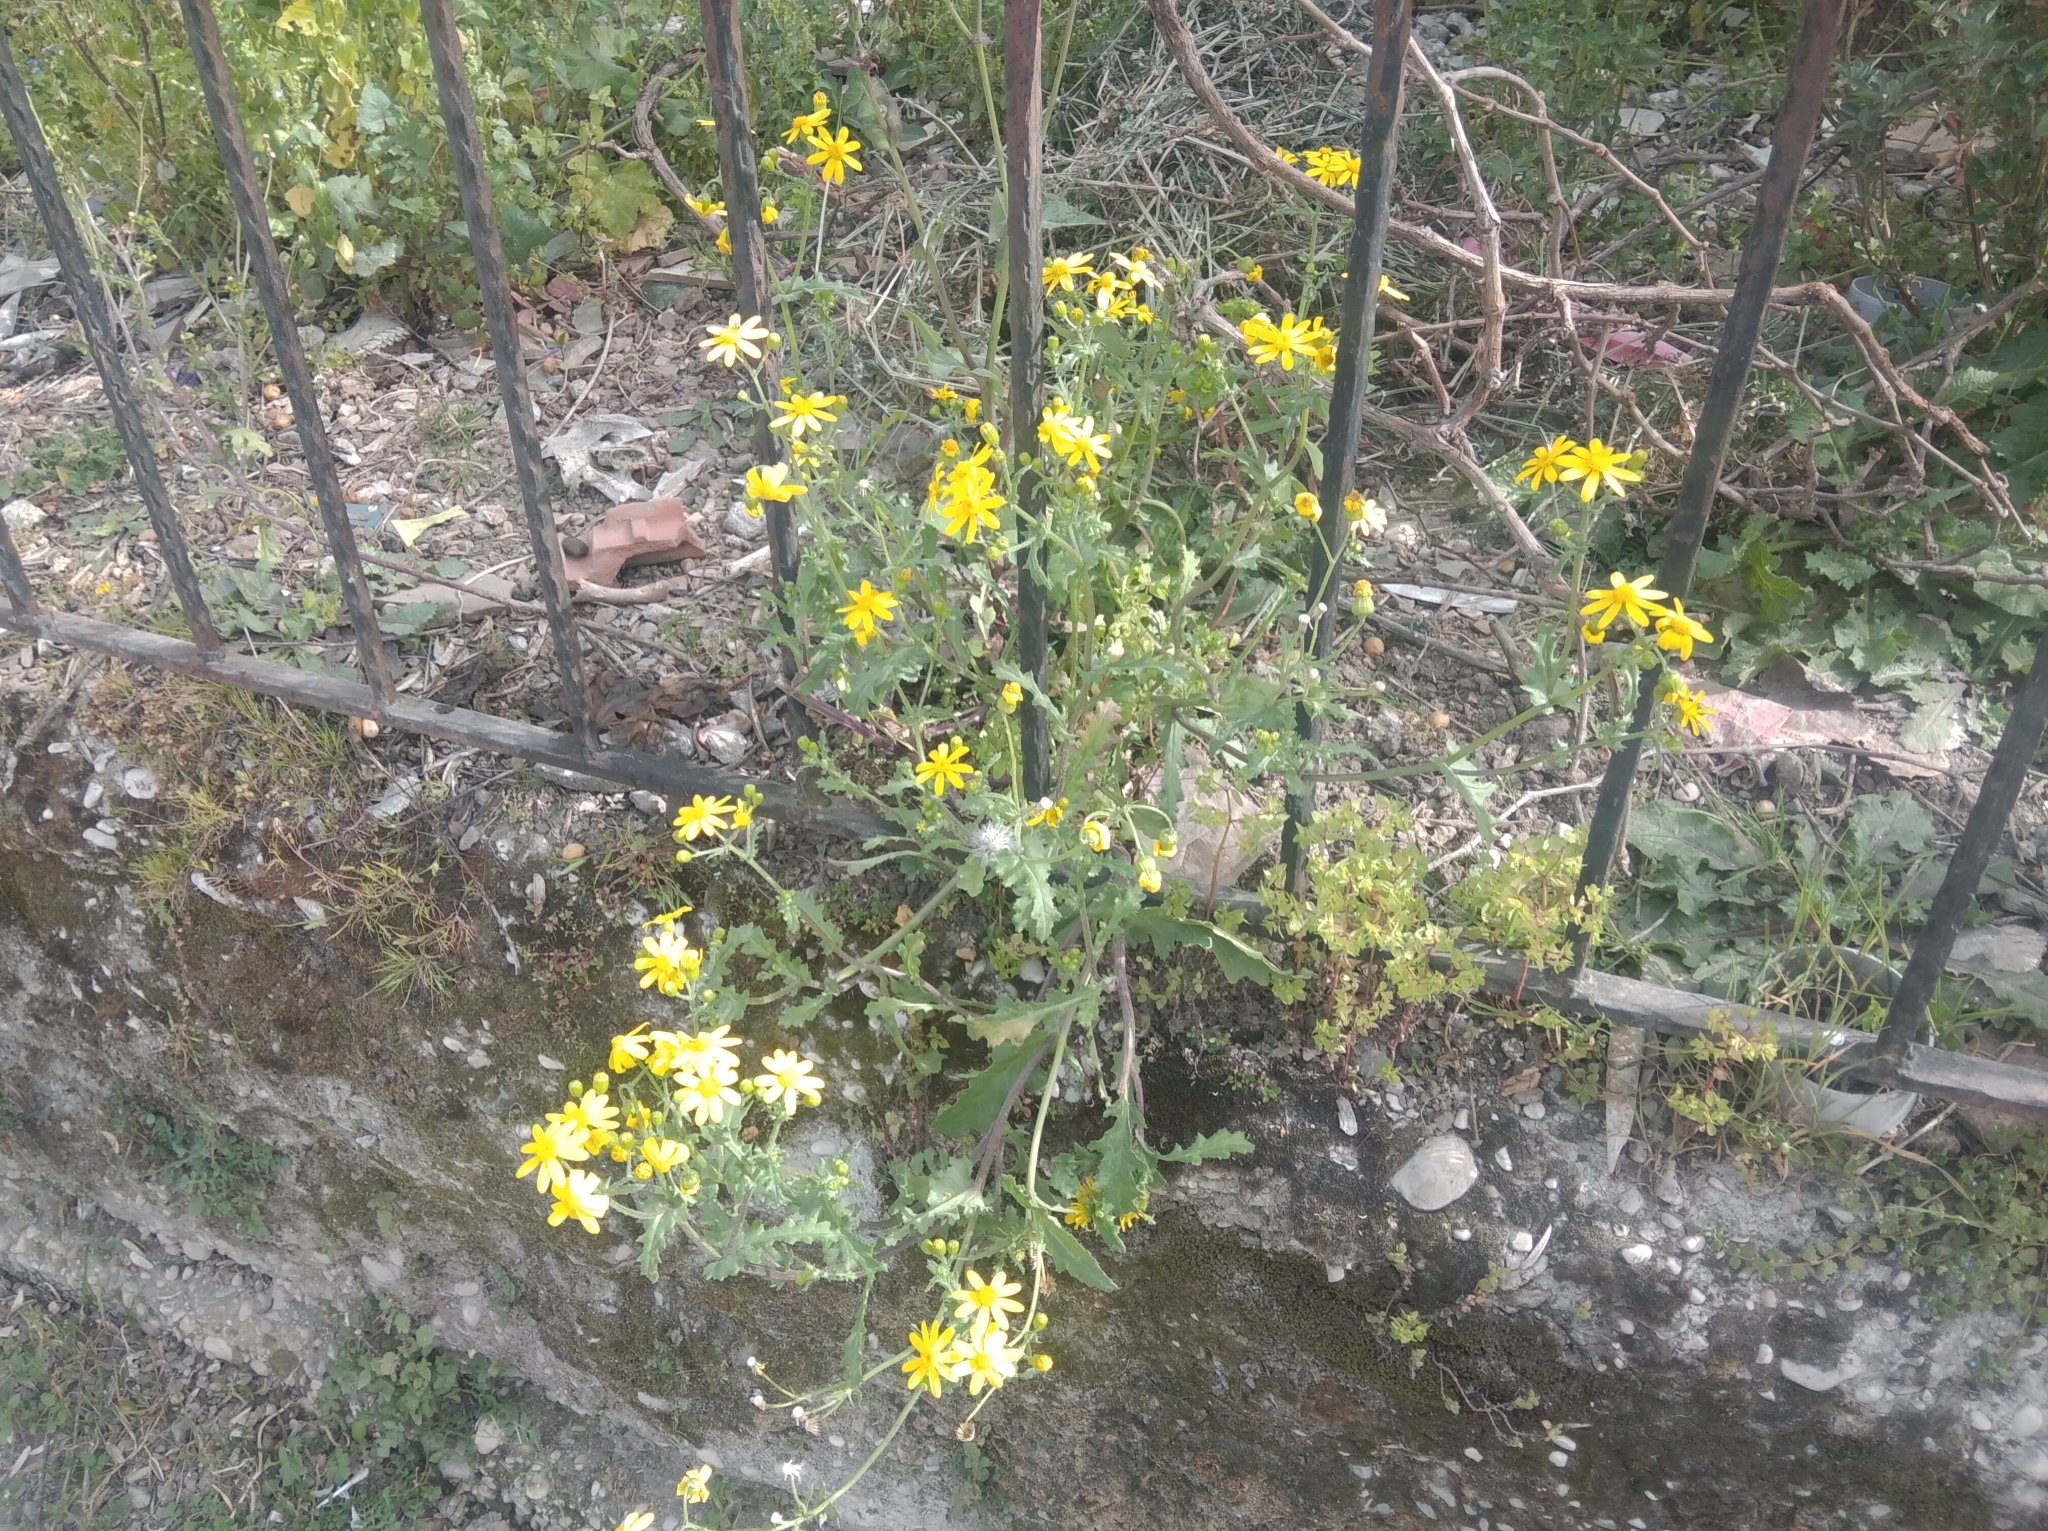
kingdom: Plantae
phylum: Tracheophyta
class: Magnoliopsida
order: Asterales
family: Asteraceae
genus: Senecio
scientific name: Senecio vernalis
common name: Eastern groundsel
